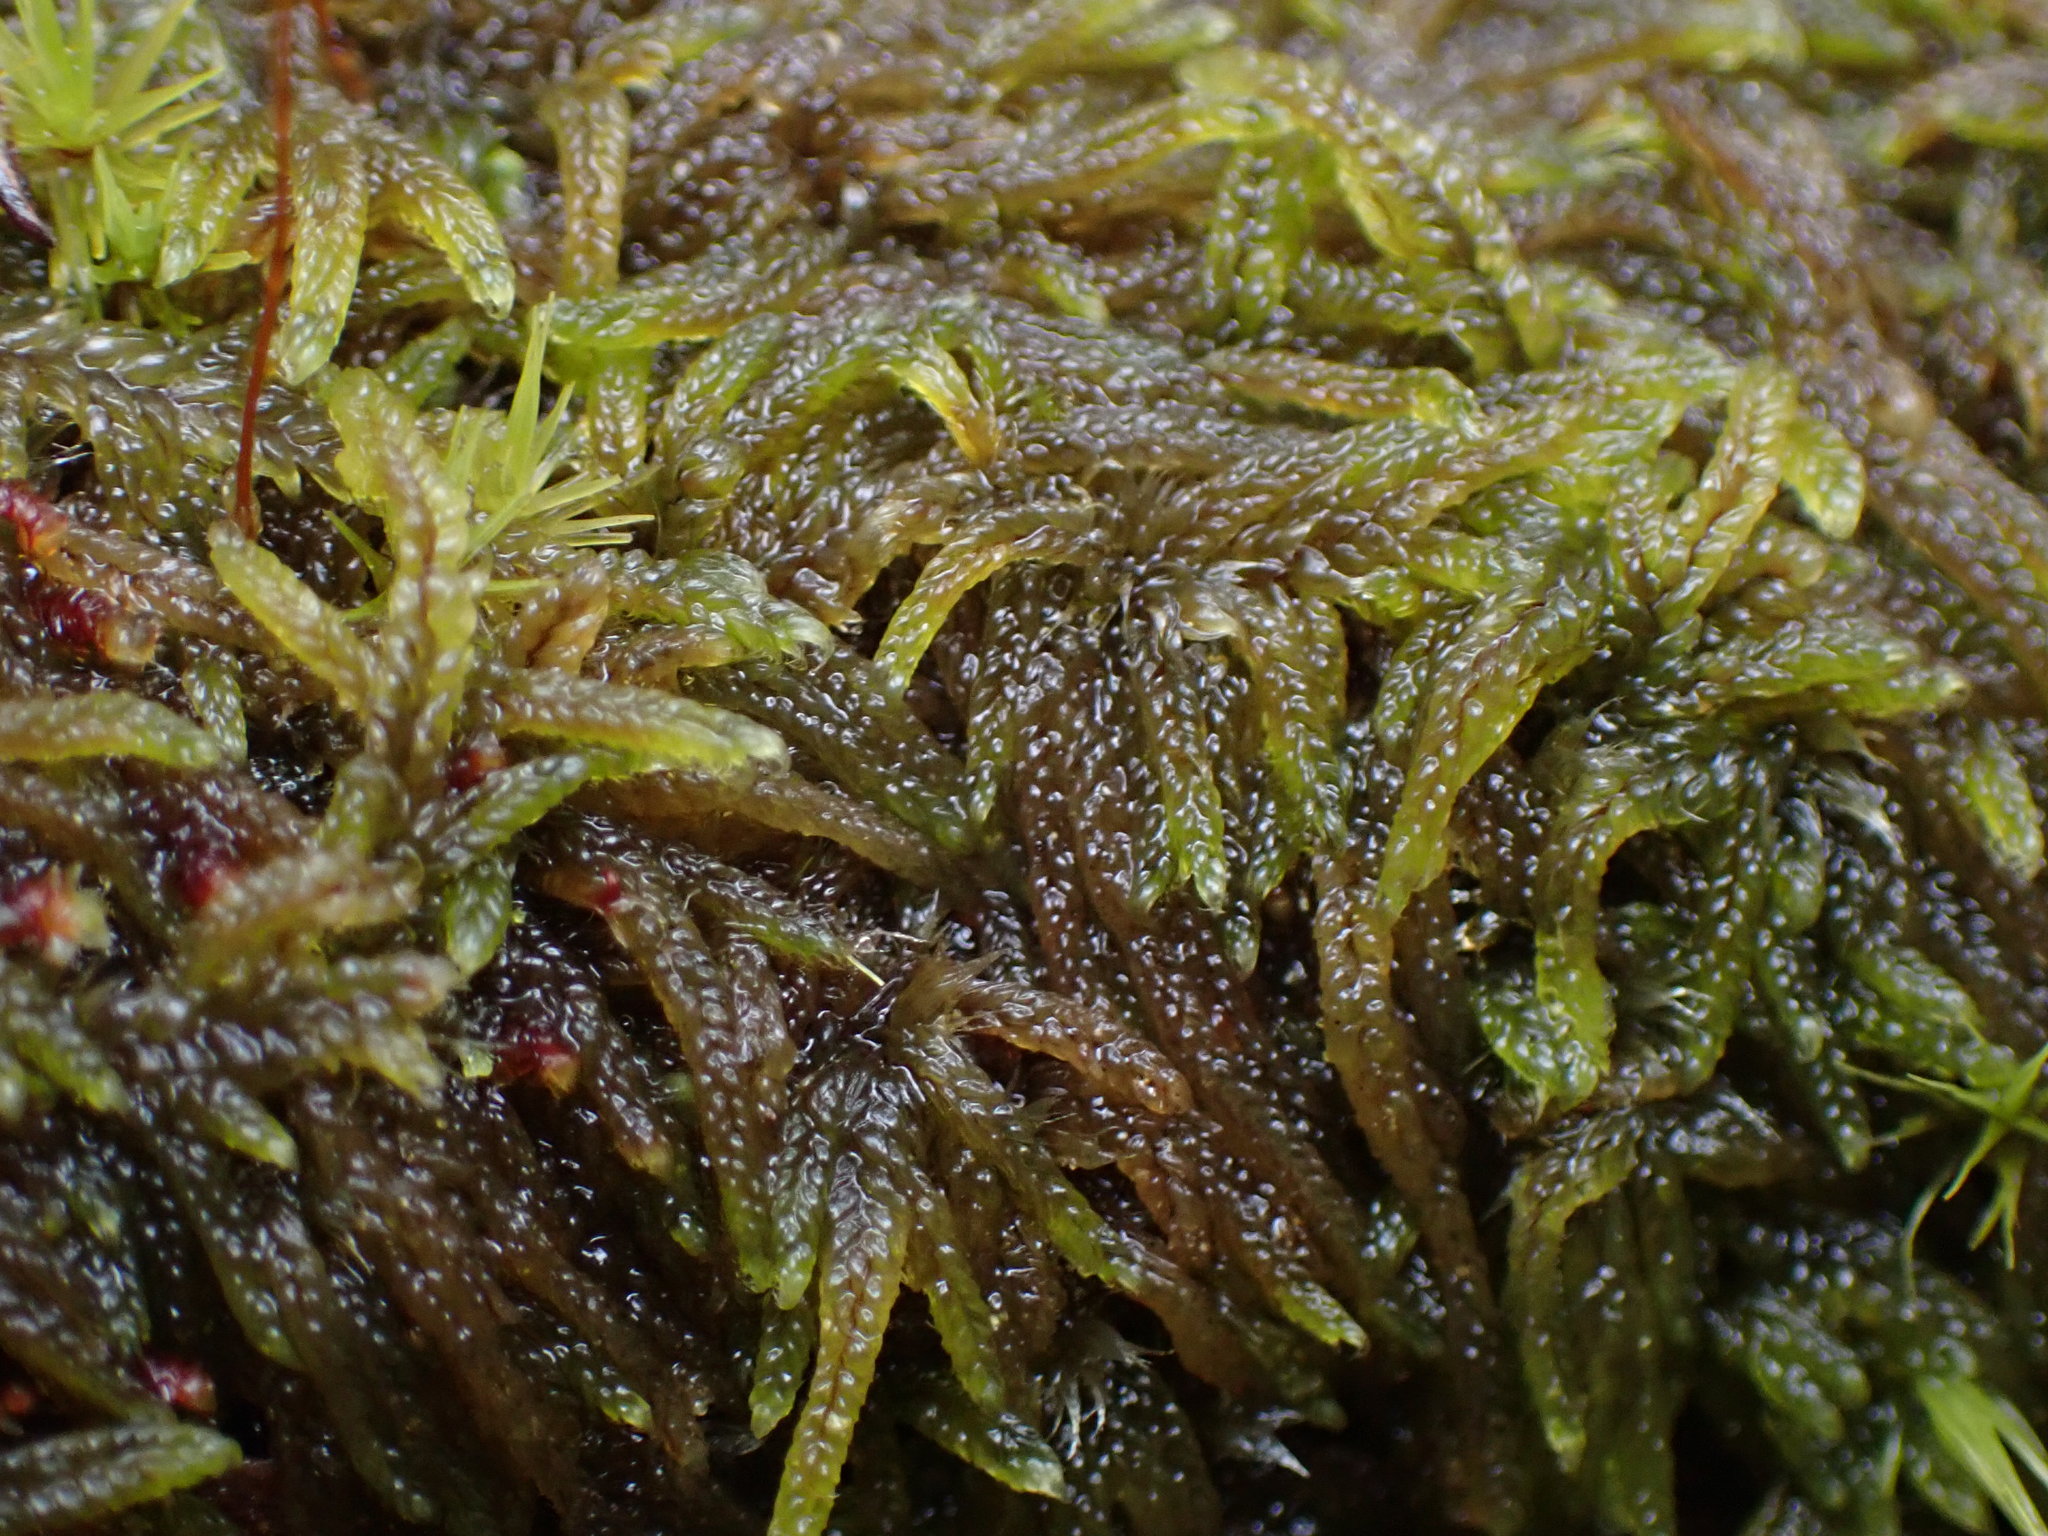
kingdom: Plantae
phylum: Bryophyta
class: Bryopsida
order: Hypnales
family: Pylaisiadelphaceae
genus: Trochophyllohypnum
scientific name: Trochophyllohypnum circinale
